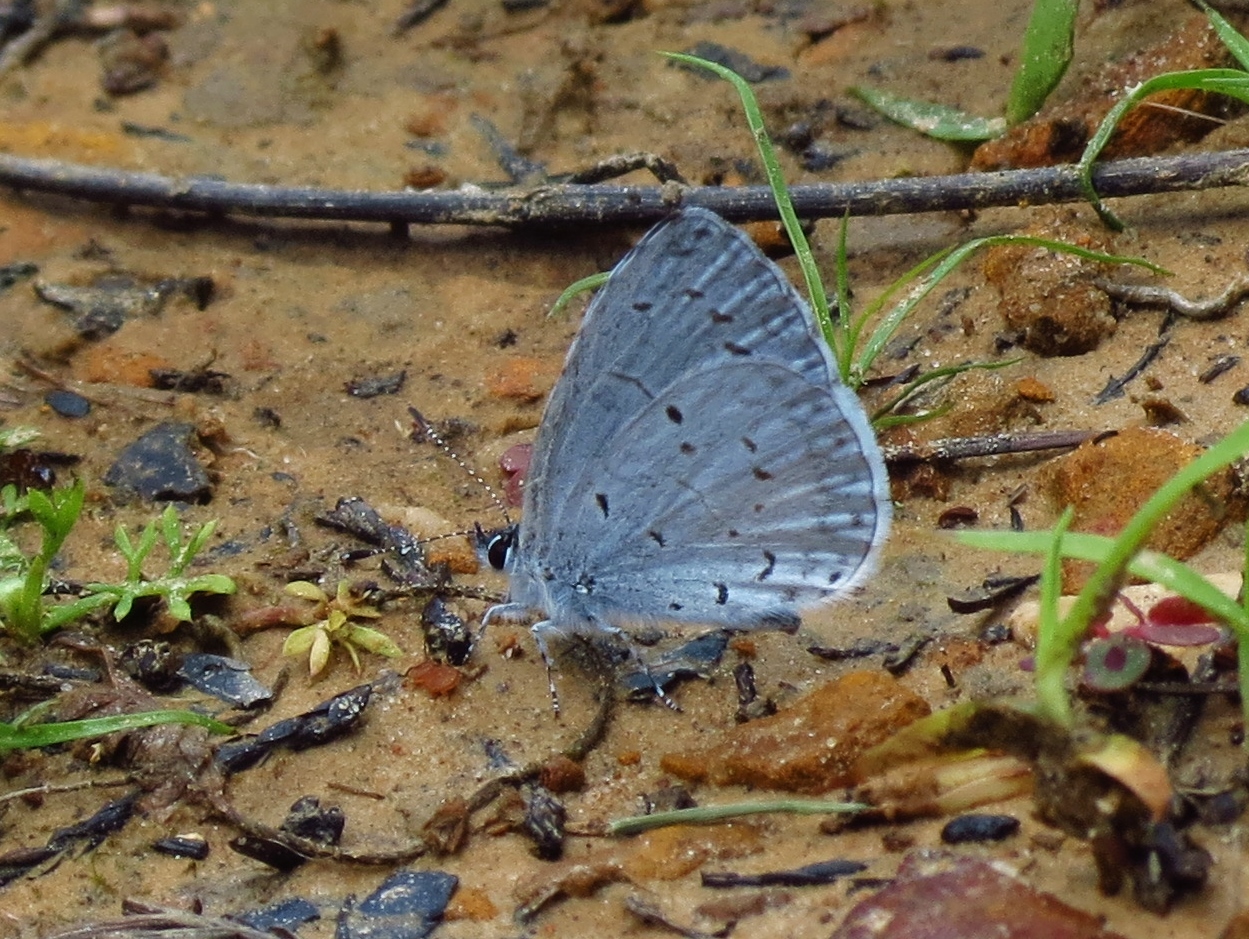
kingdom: Animalia
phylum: Arthropoda
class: Insecta
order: Lepidoptera
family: Lycaenidae
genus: Celastrina
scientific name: Celastrina ladon
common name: Spring azure
